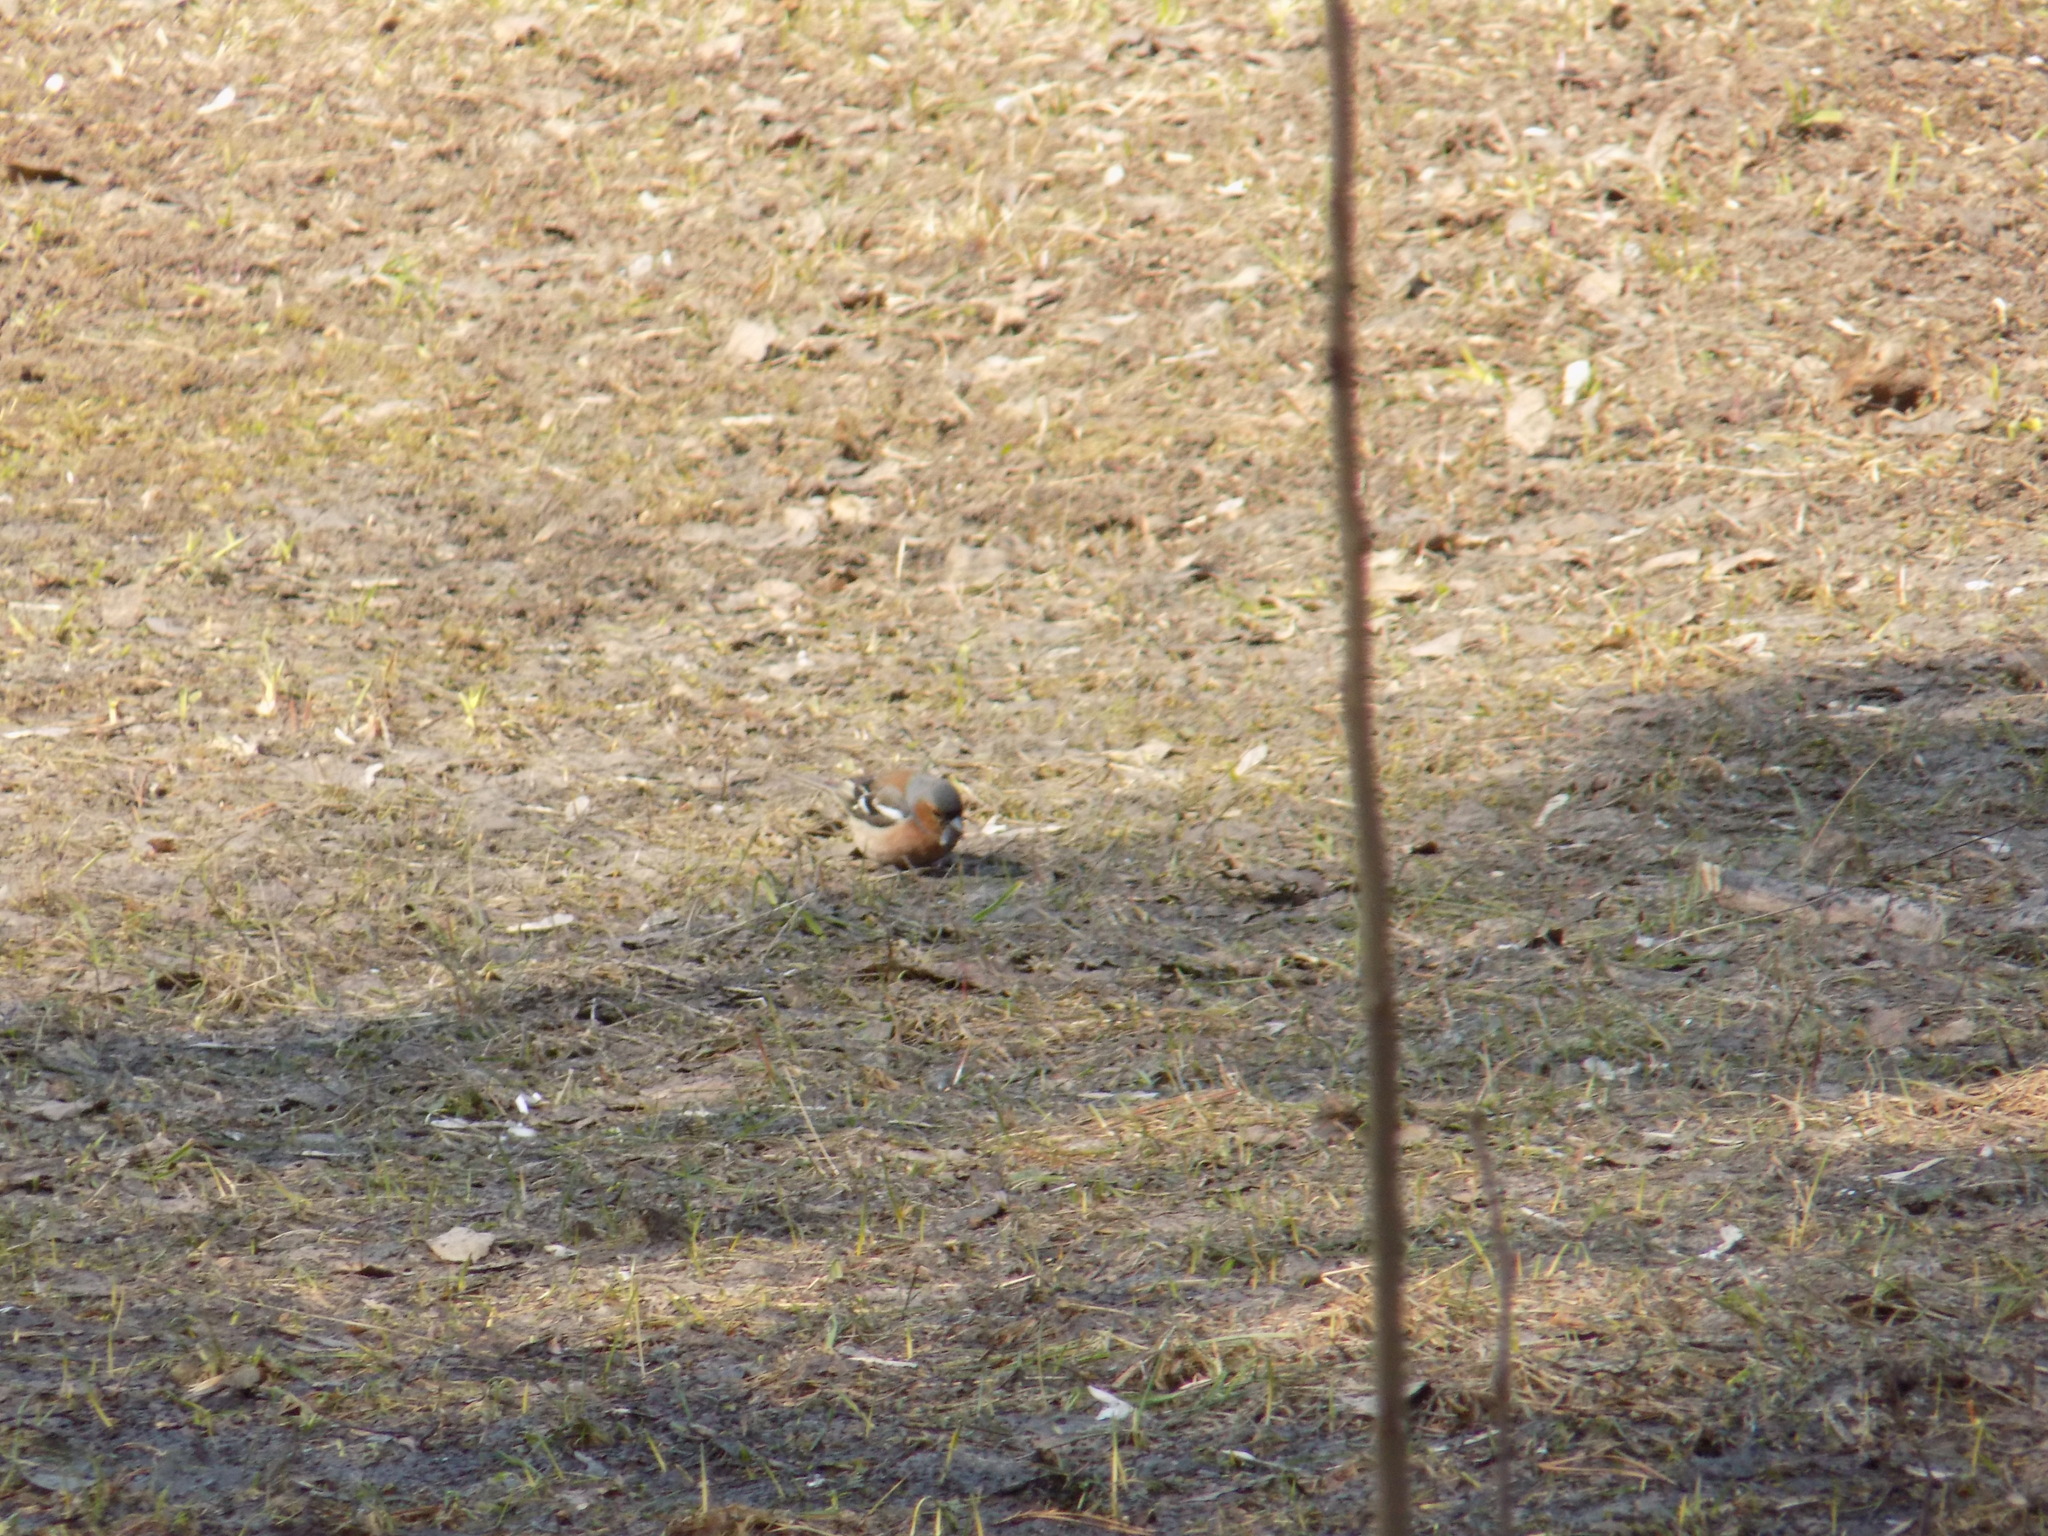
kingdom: Animalia
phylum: Chordata
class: Aves
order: Passeriformes
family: Fringillidae
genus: Fringilla
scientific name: Fringilla coelebs
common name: Common chaffinch
